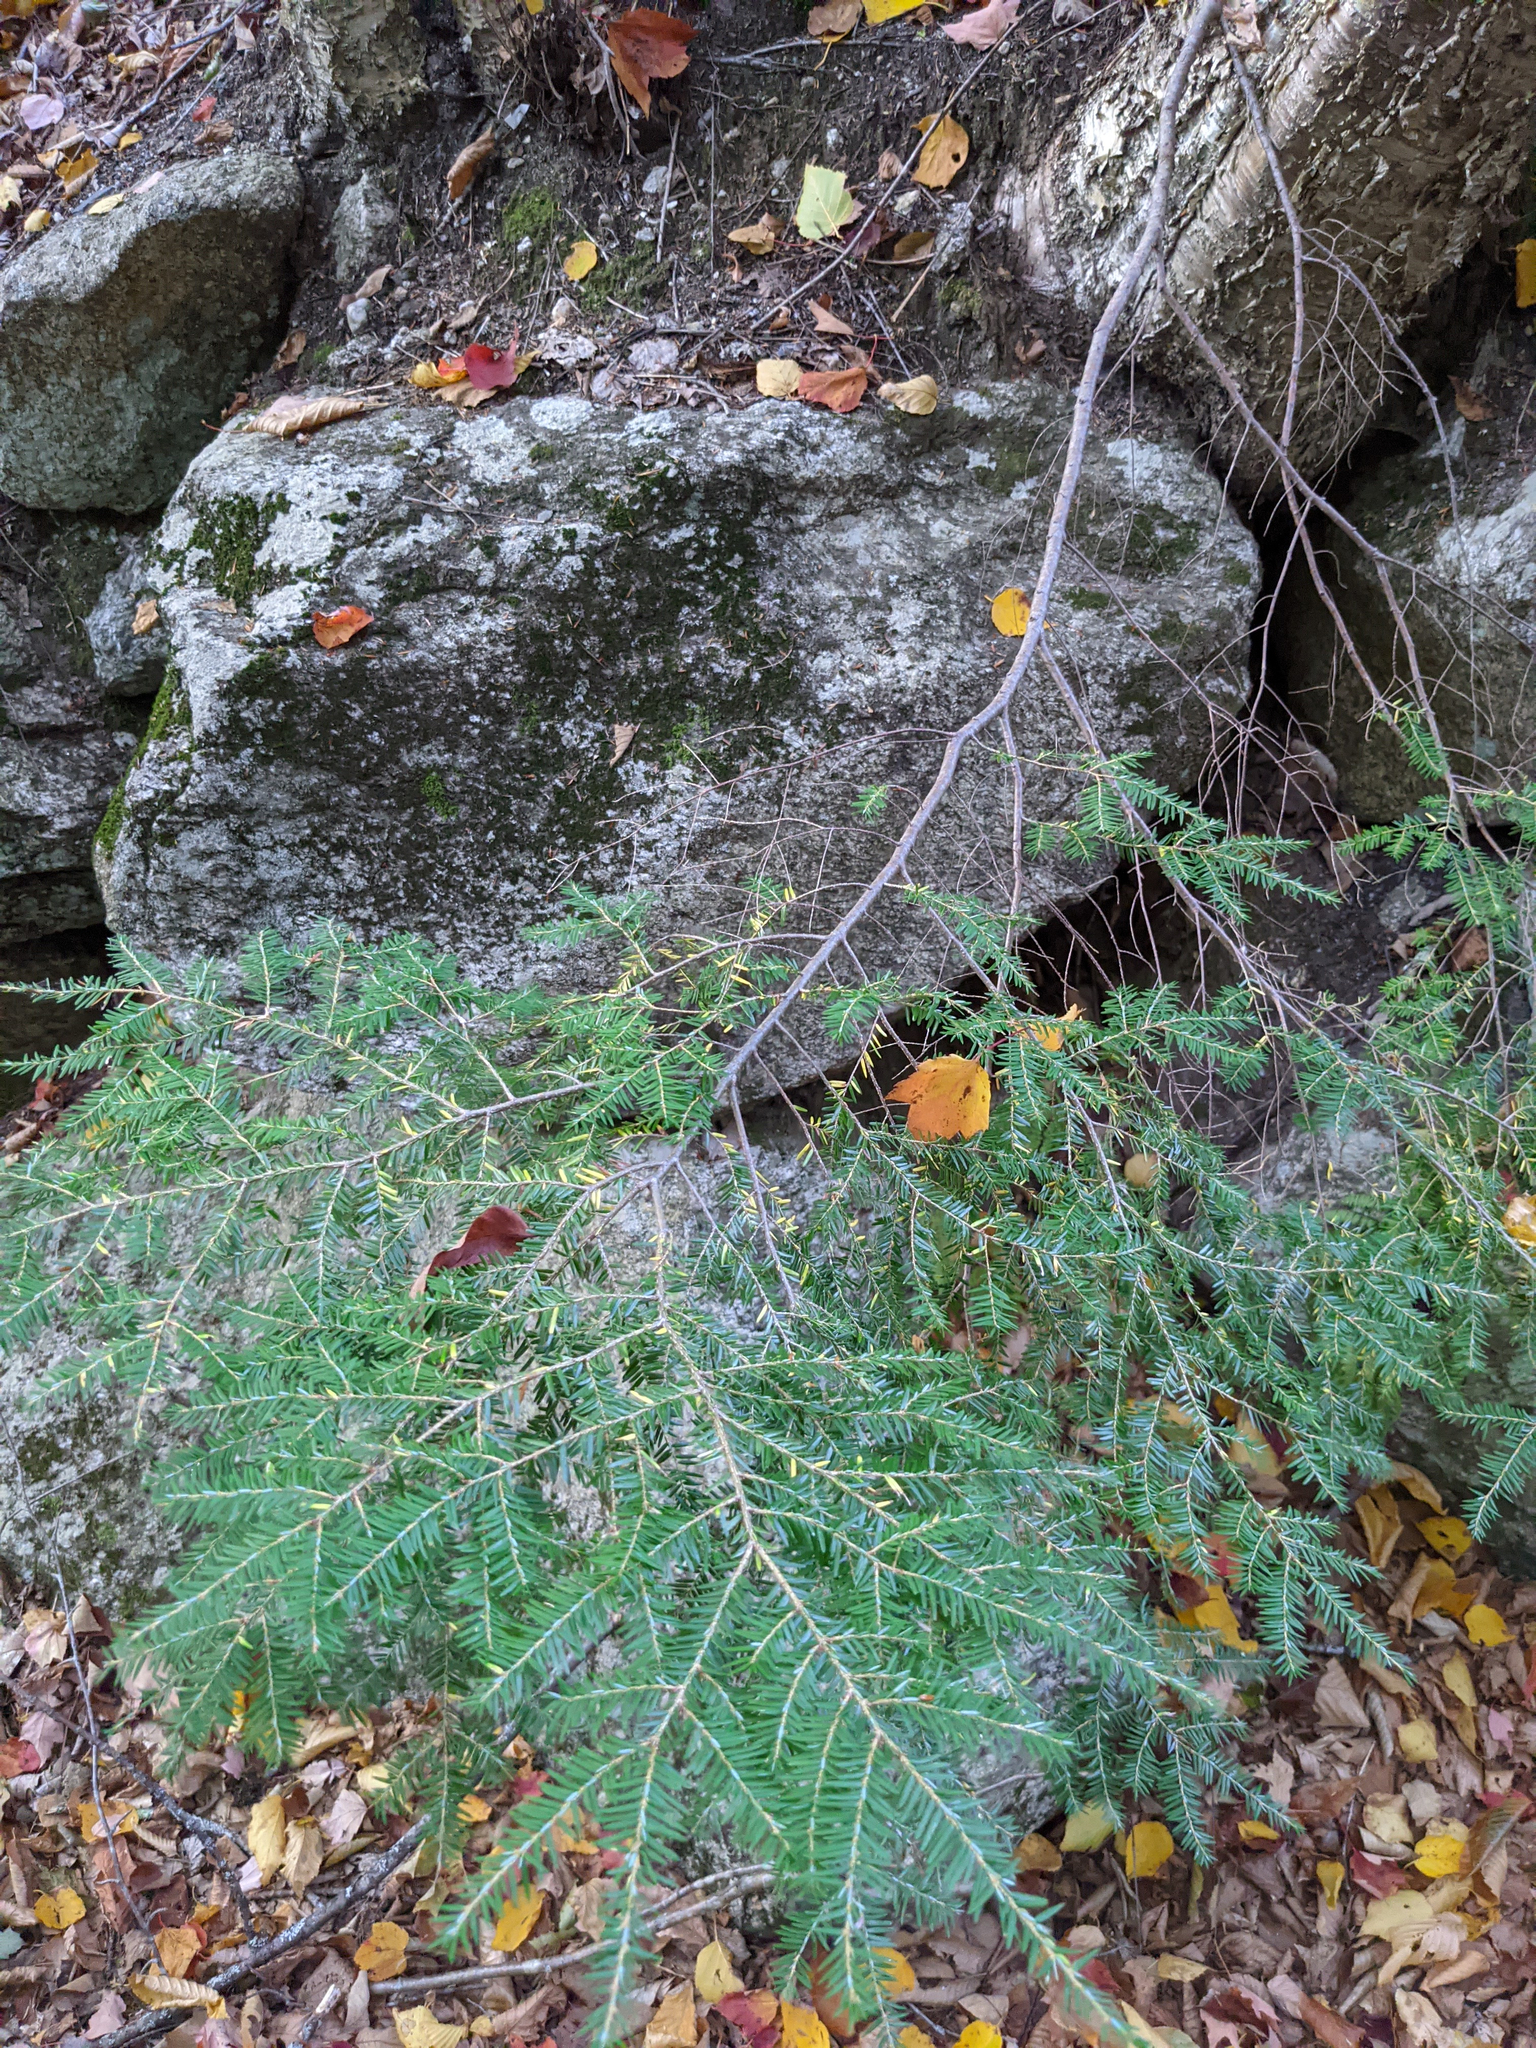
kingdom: Plantae
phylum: Tracheophyta
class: Pinopsida
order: Pinales
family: Pinaceae
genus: Tsuga
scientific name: Tsuga canadensis
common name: Eastern hemlock
